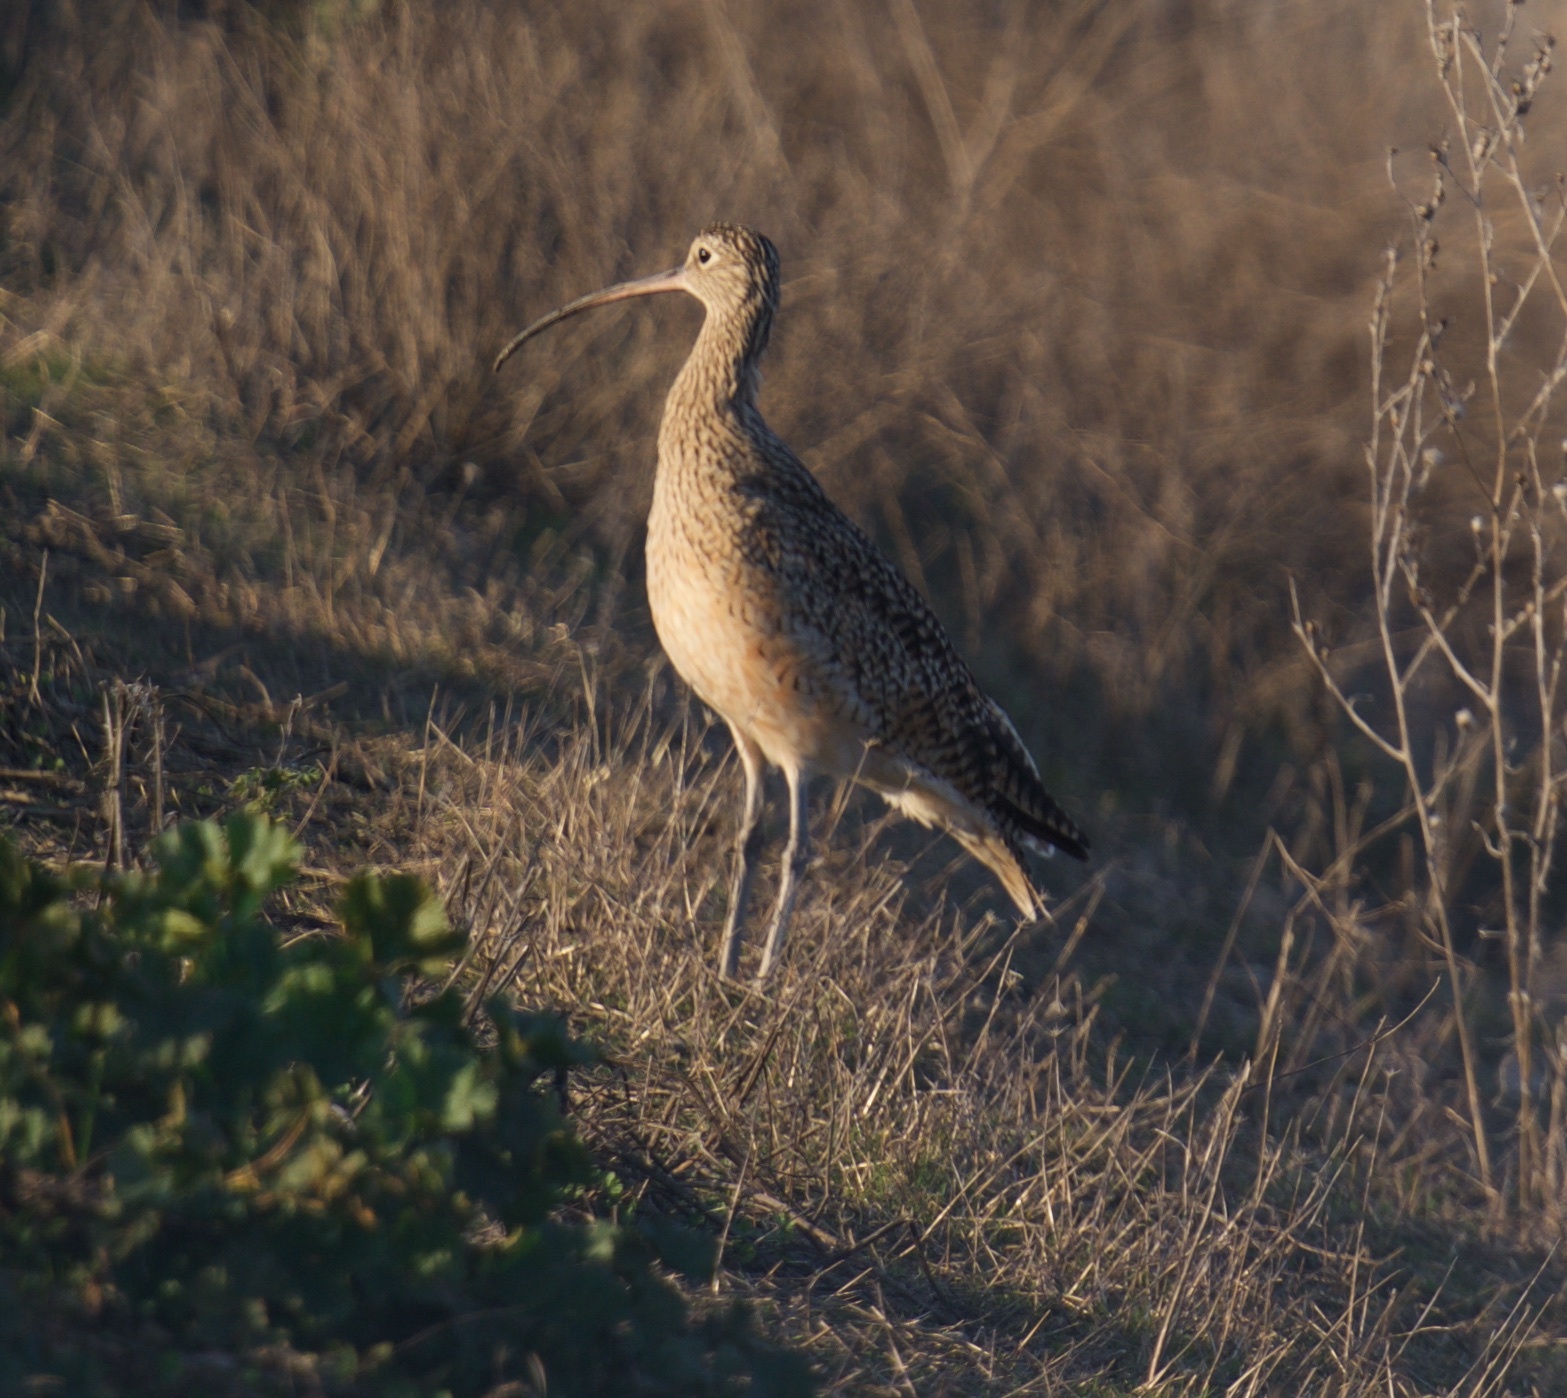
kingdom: Animalia
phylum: Chordata
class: Aves
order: Charadriiformes
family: Scolopacidae
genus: Numenius
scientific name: Numenius americanus
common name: Long-billed curlew
